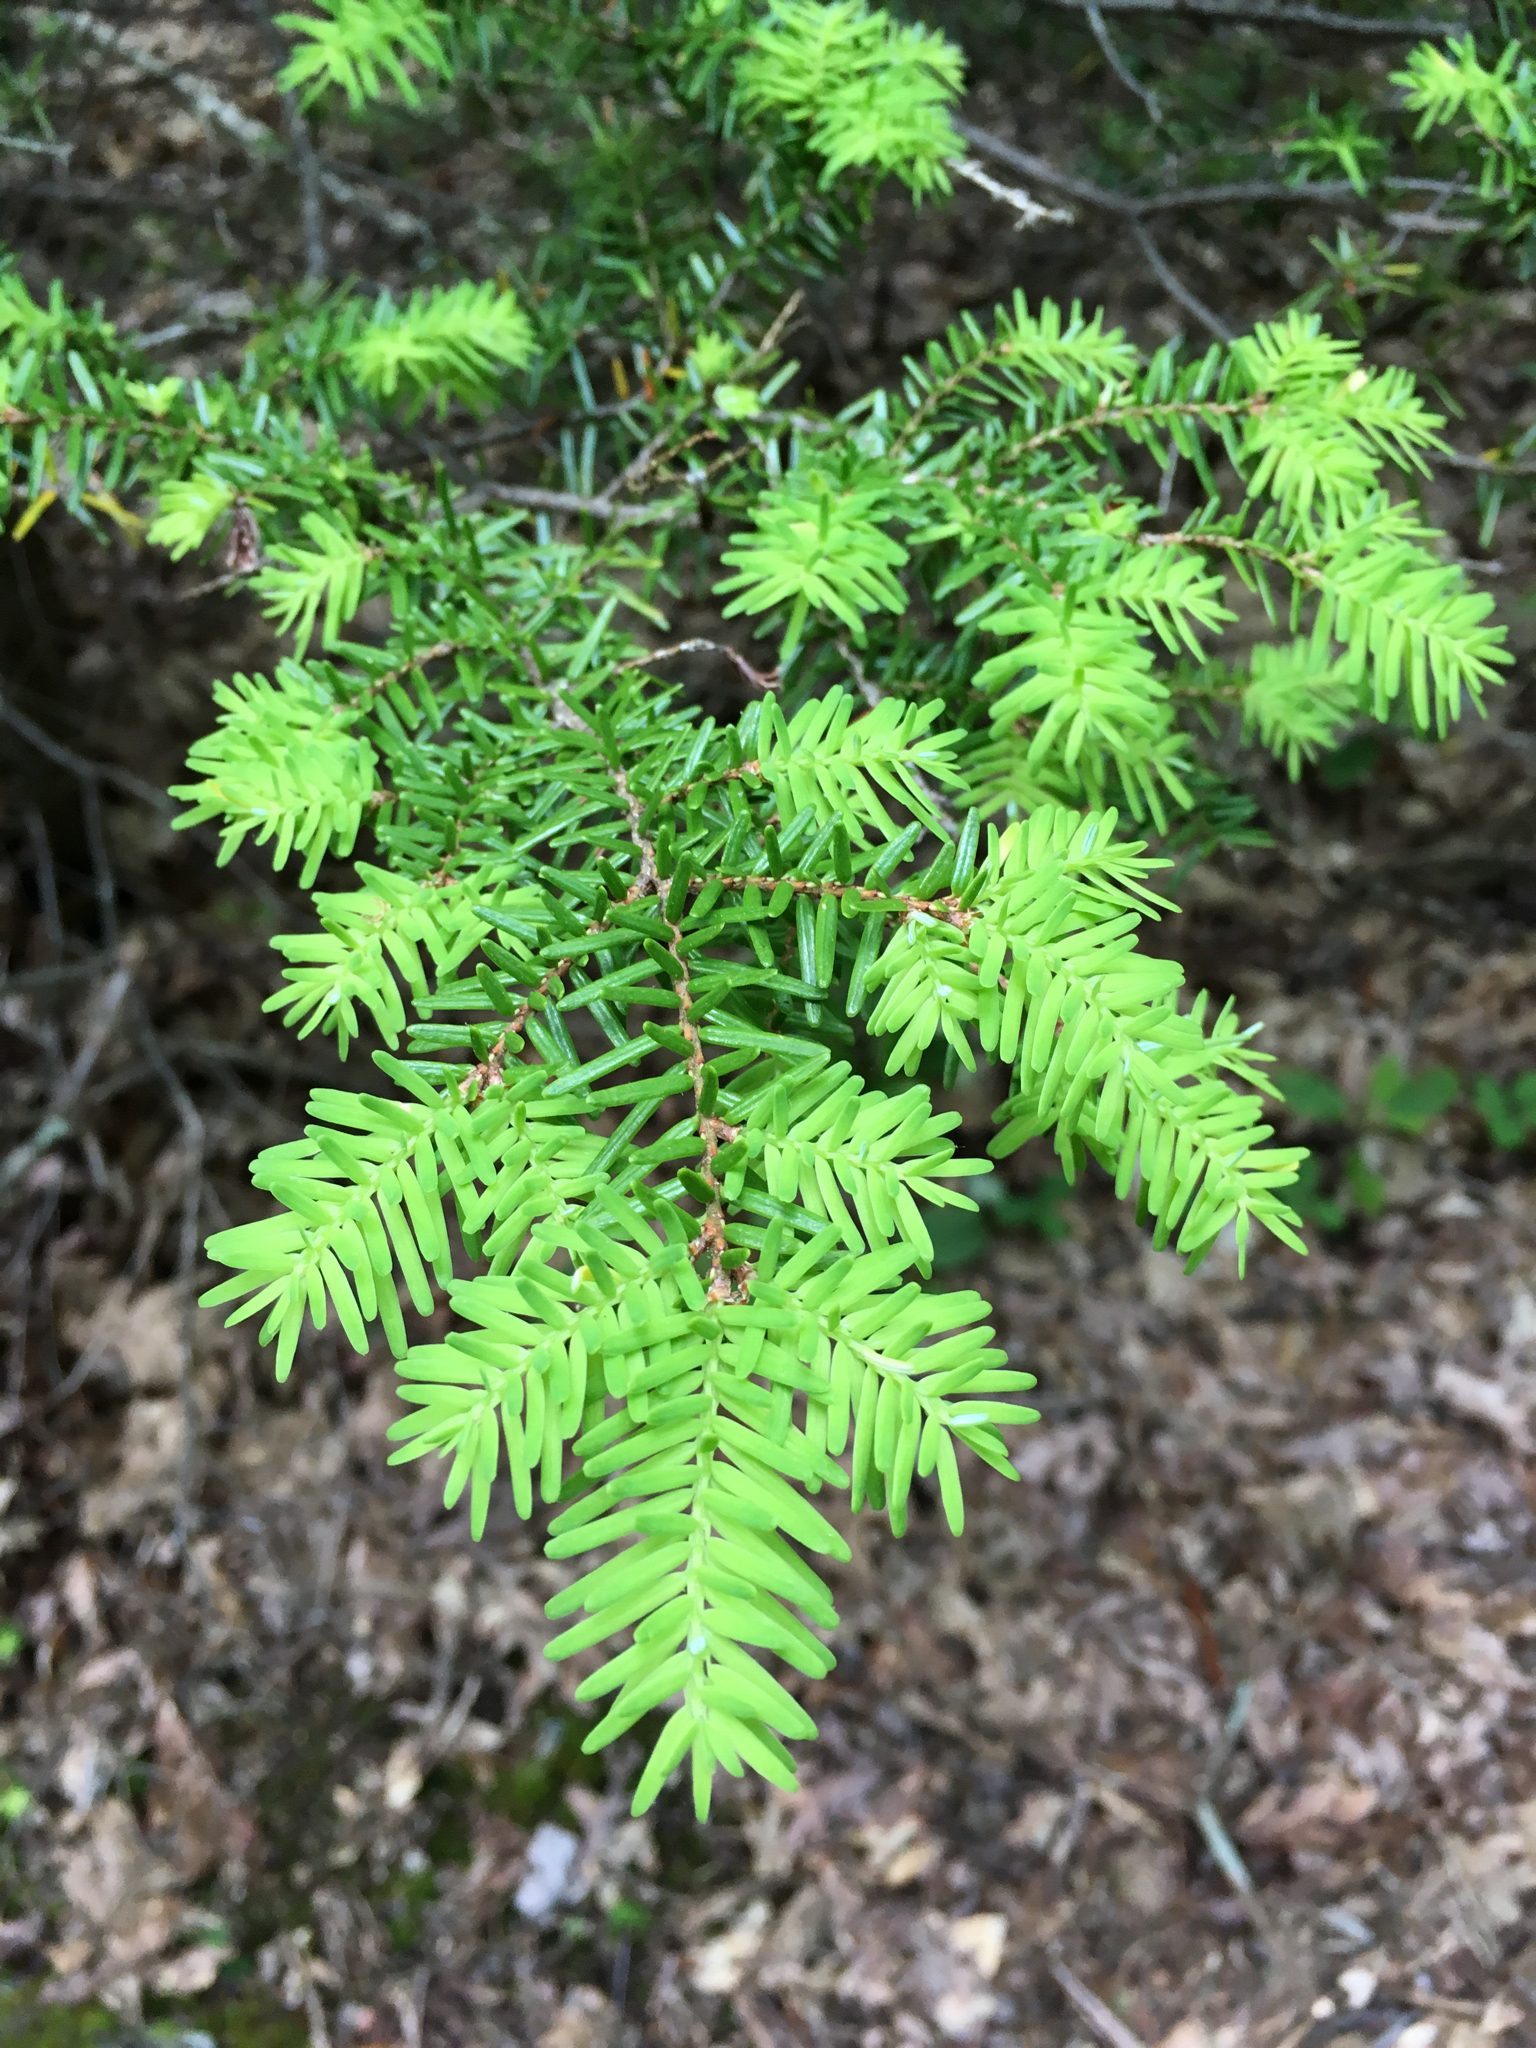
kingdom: Plantae
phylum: Tracheophyta
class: Pinopsida
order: Pinales
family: Pinaceae
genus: Tsuga
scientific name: Tsuga caroliniana
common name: Carolina hemlock
